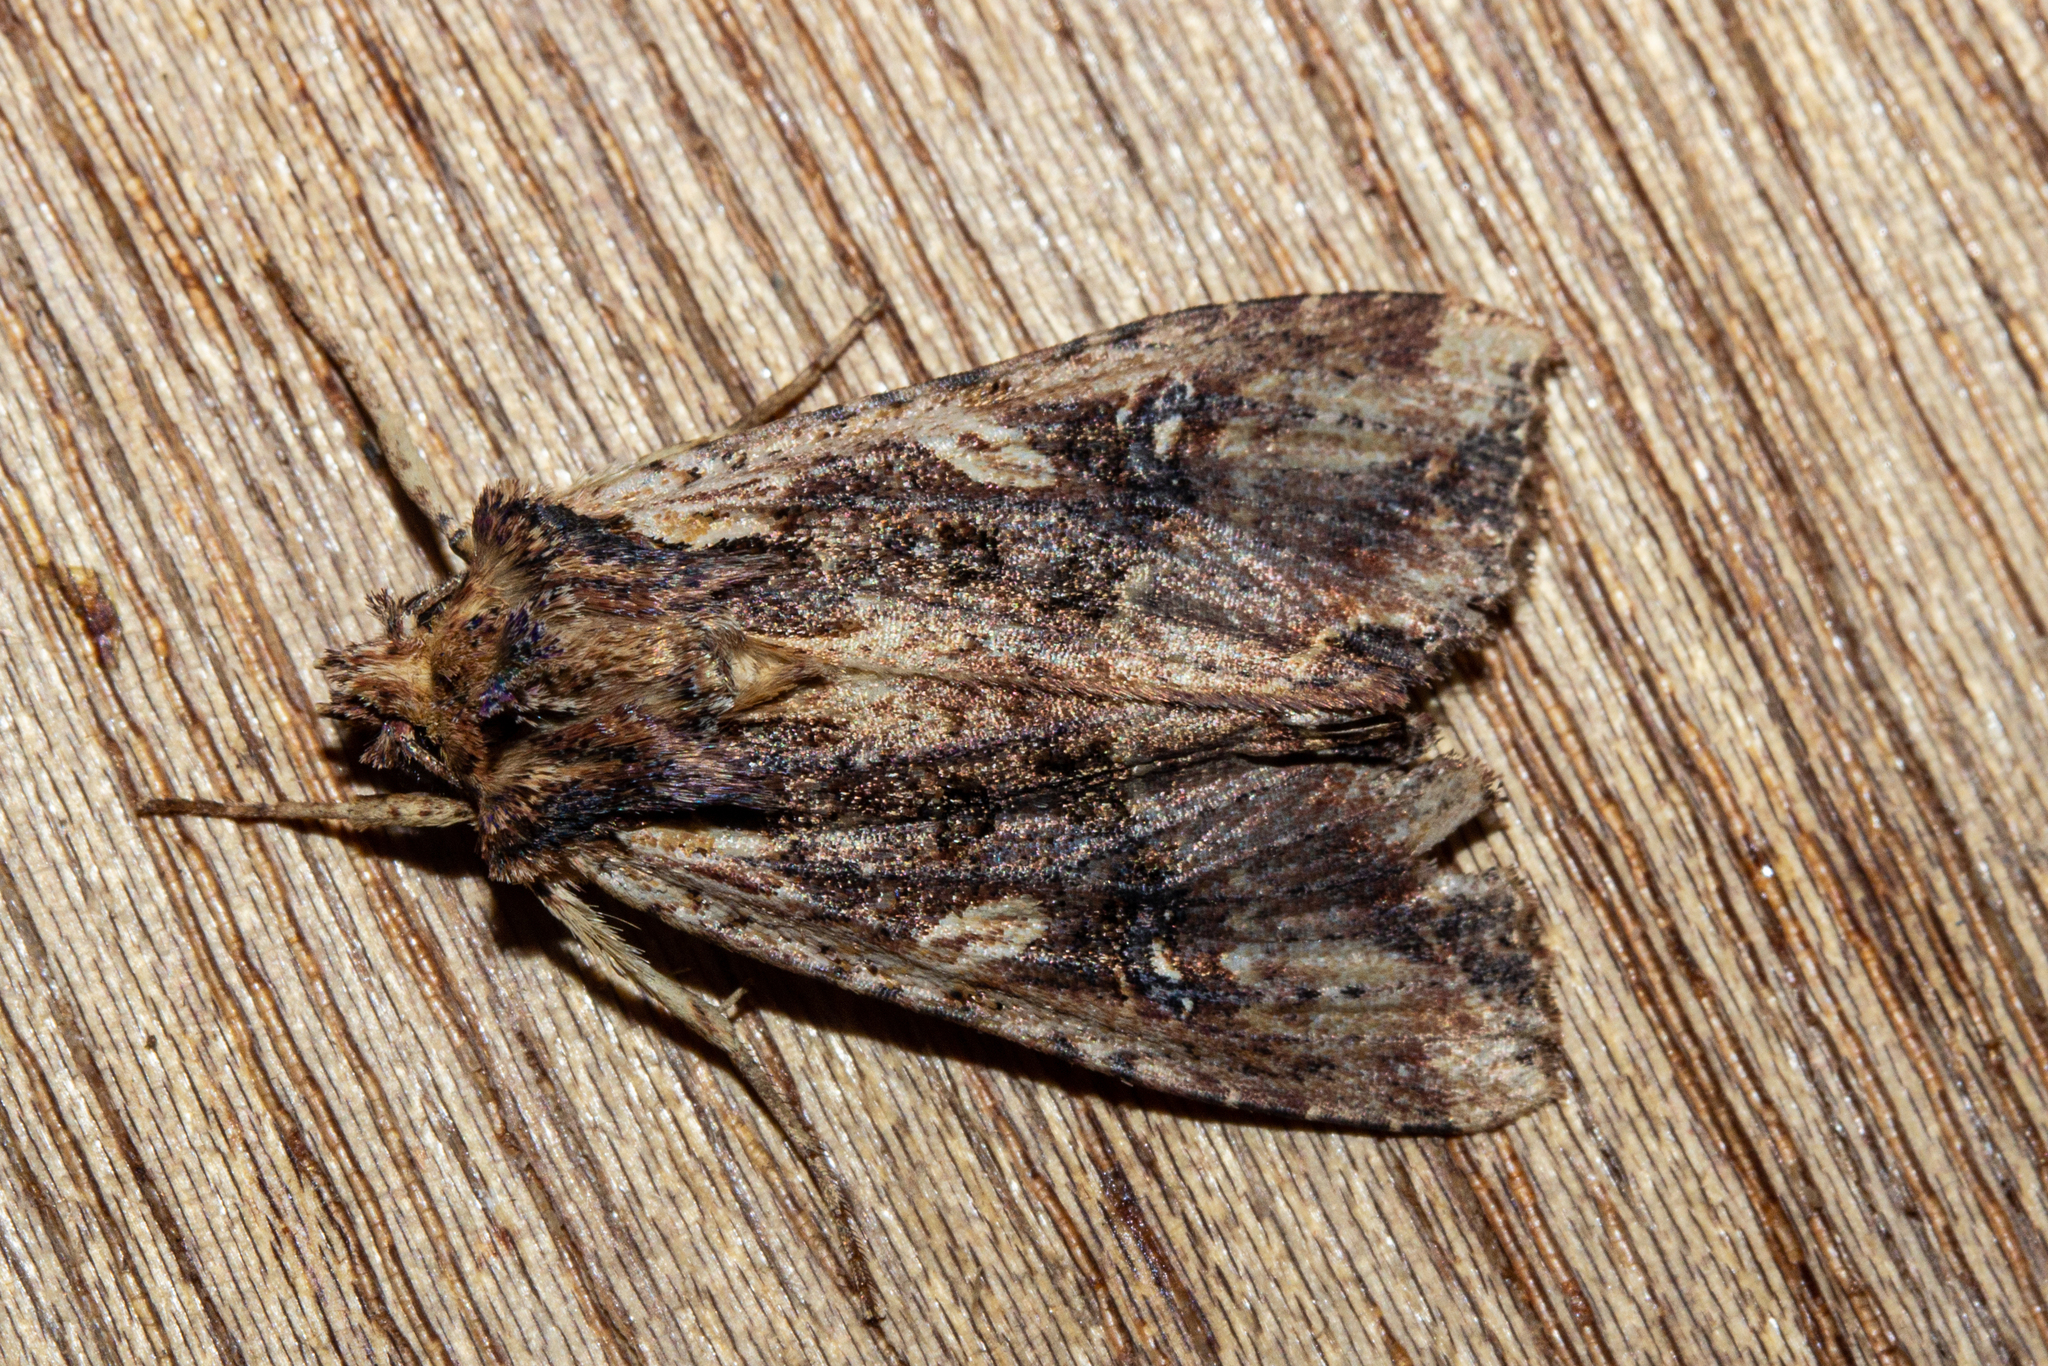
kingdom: Animalia
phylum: Arthropoda
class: Insecta
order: Lepidoptera
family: Noctuidae
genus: Meterana
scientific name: Meterana stipata
